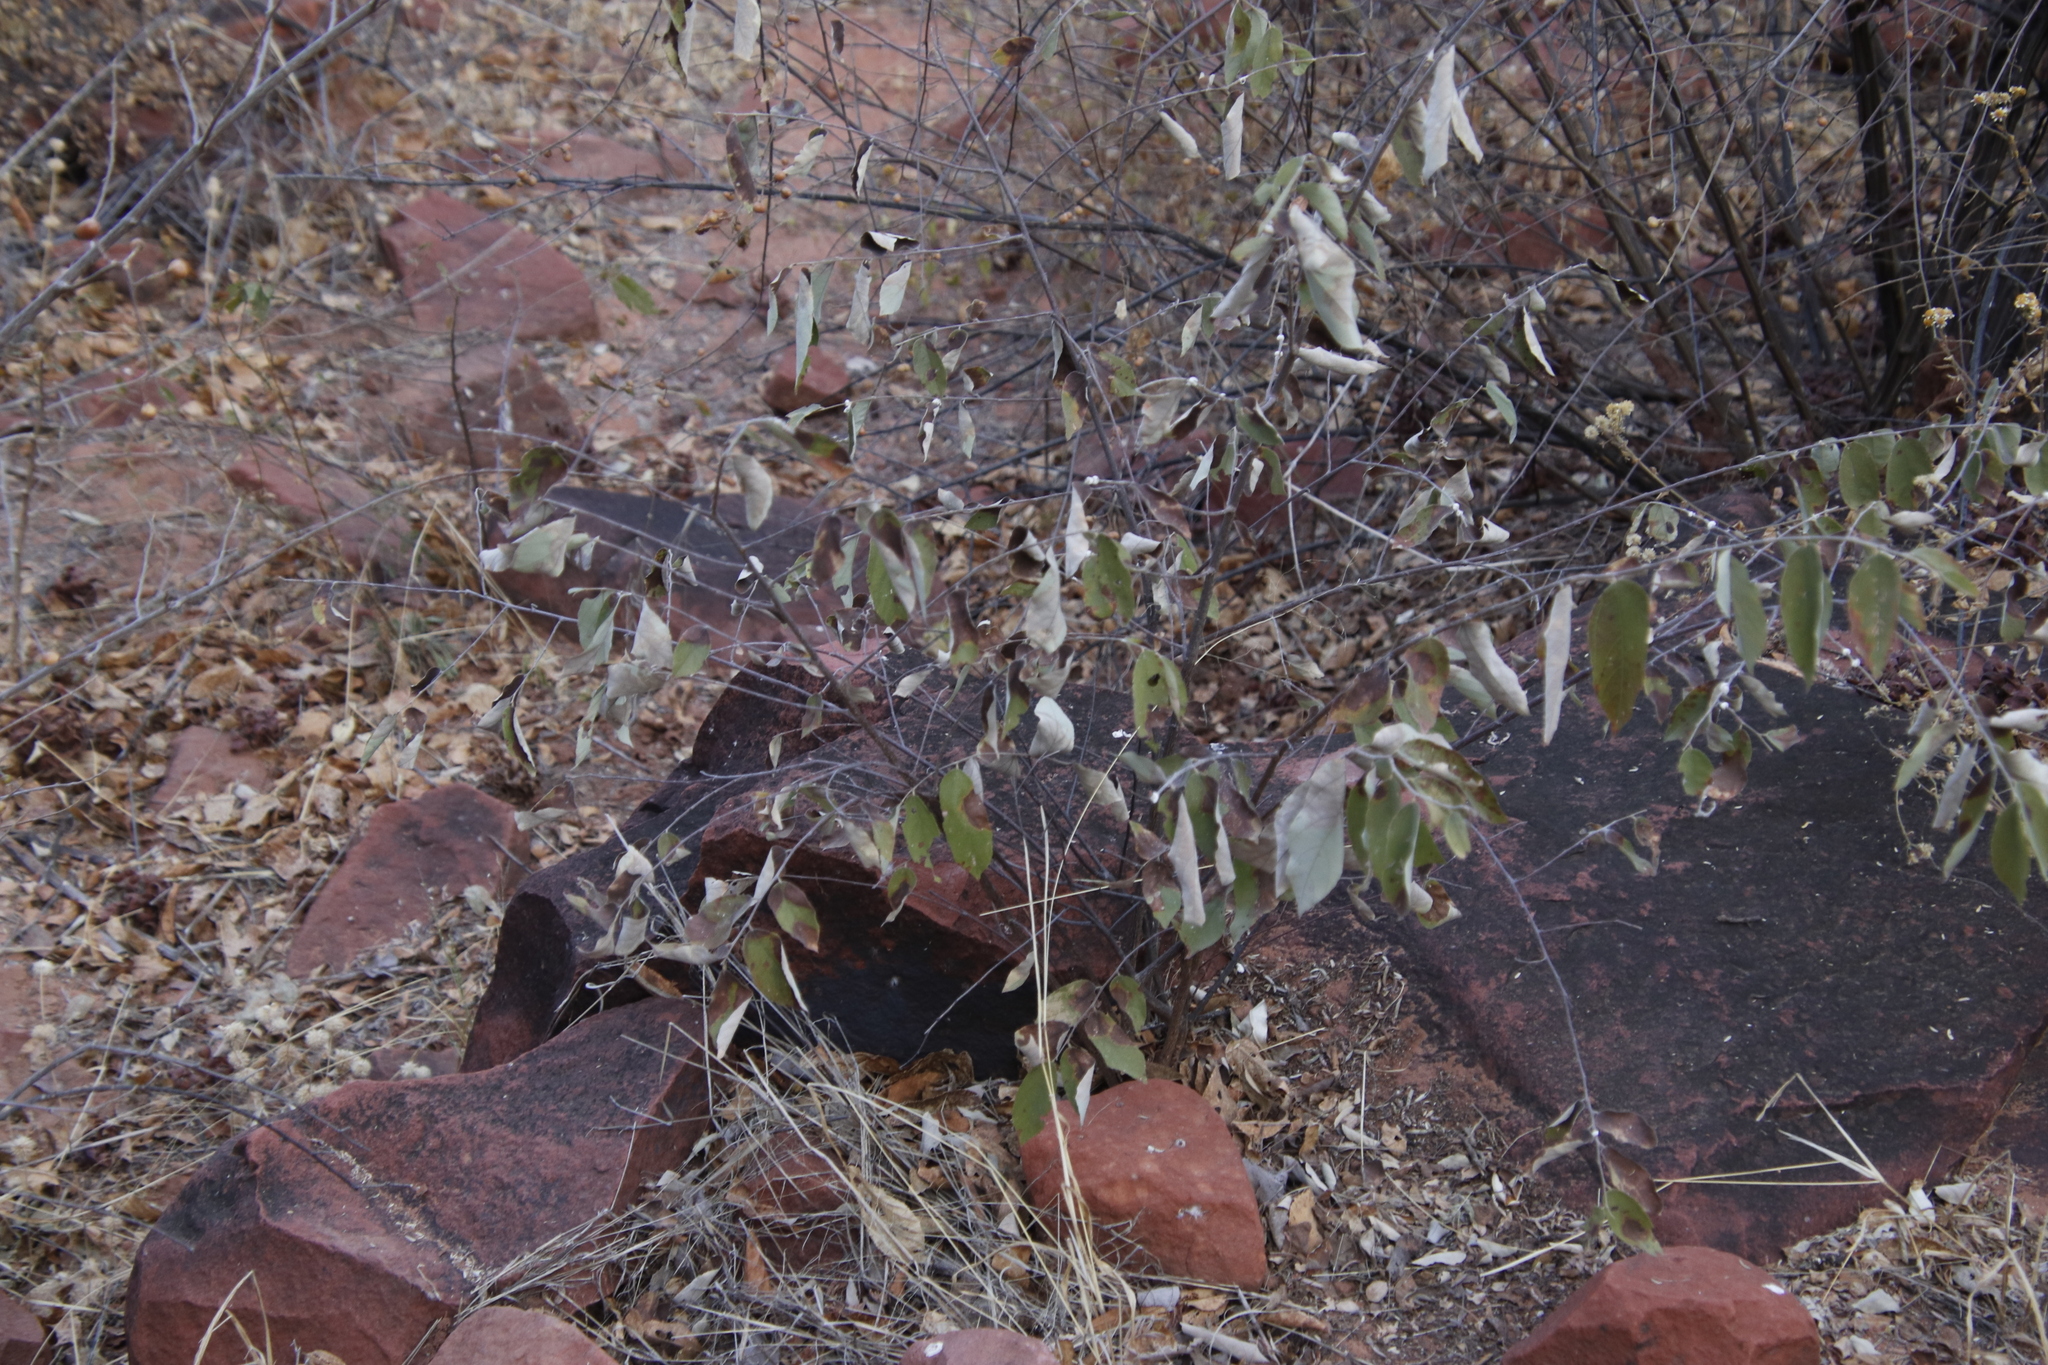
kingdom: Plantae
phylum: Tracheophyta
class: Magnoliopsida
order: Malvales
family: Malvaceae
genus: Grewia
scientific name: Grewia flava
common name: Brandy bush
